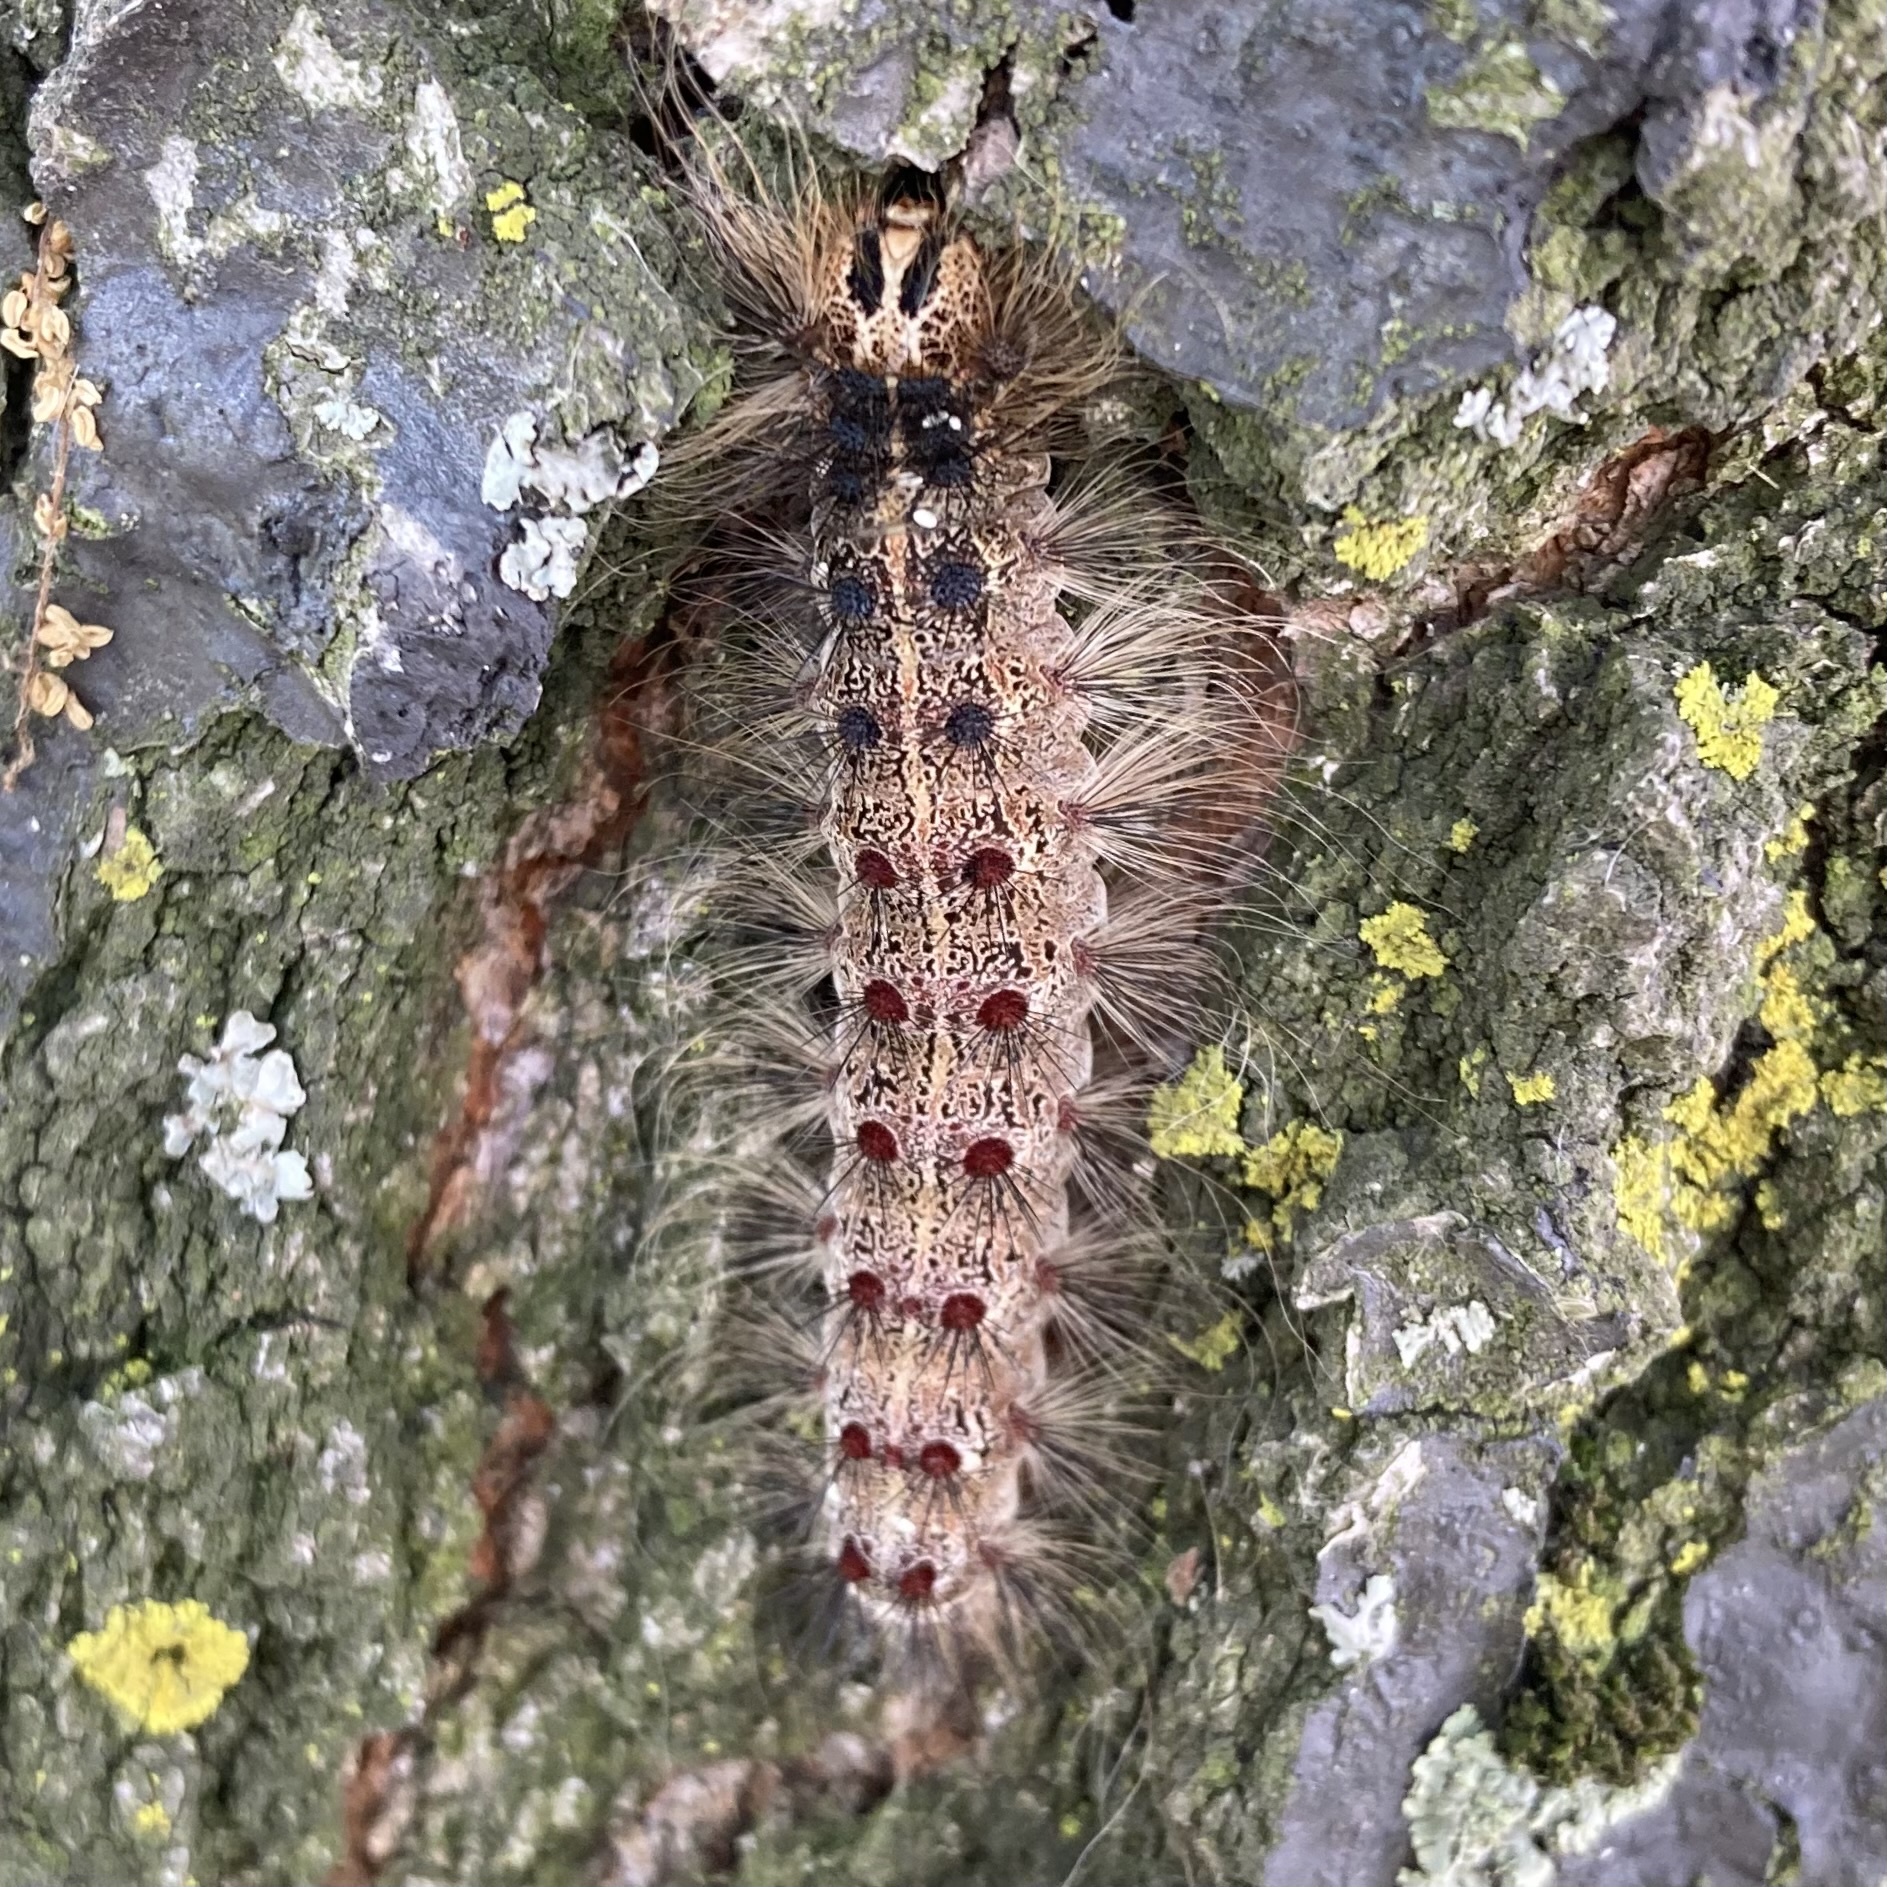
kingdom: Animalia
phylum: Arthropoda
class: Insecta
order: Lepidoptera
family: Erebidae
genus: Lymantria
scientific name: Lymantria dispar
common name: Gypsy moth
